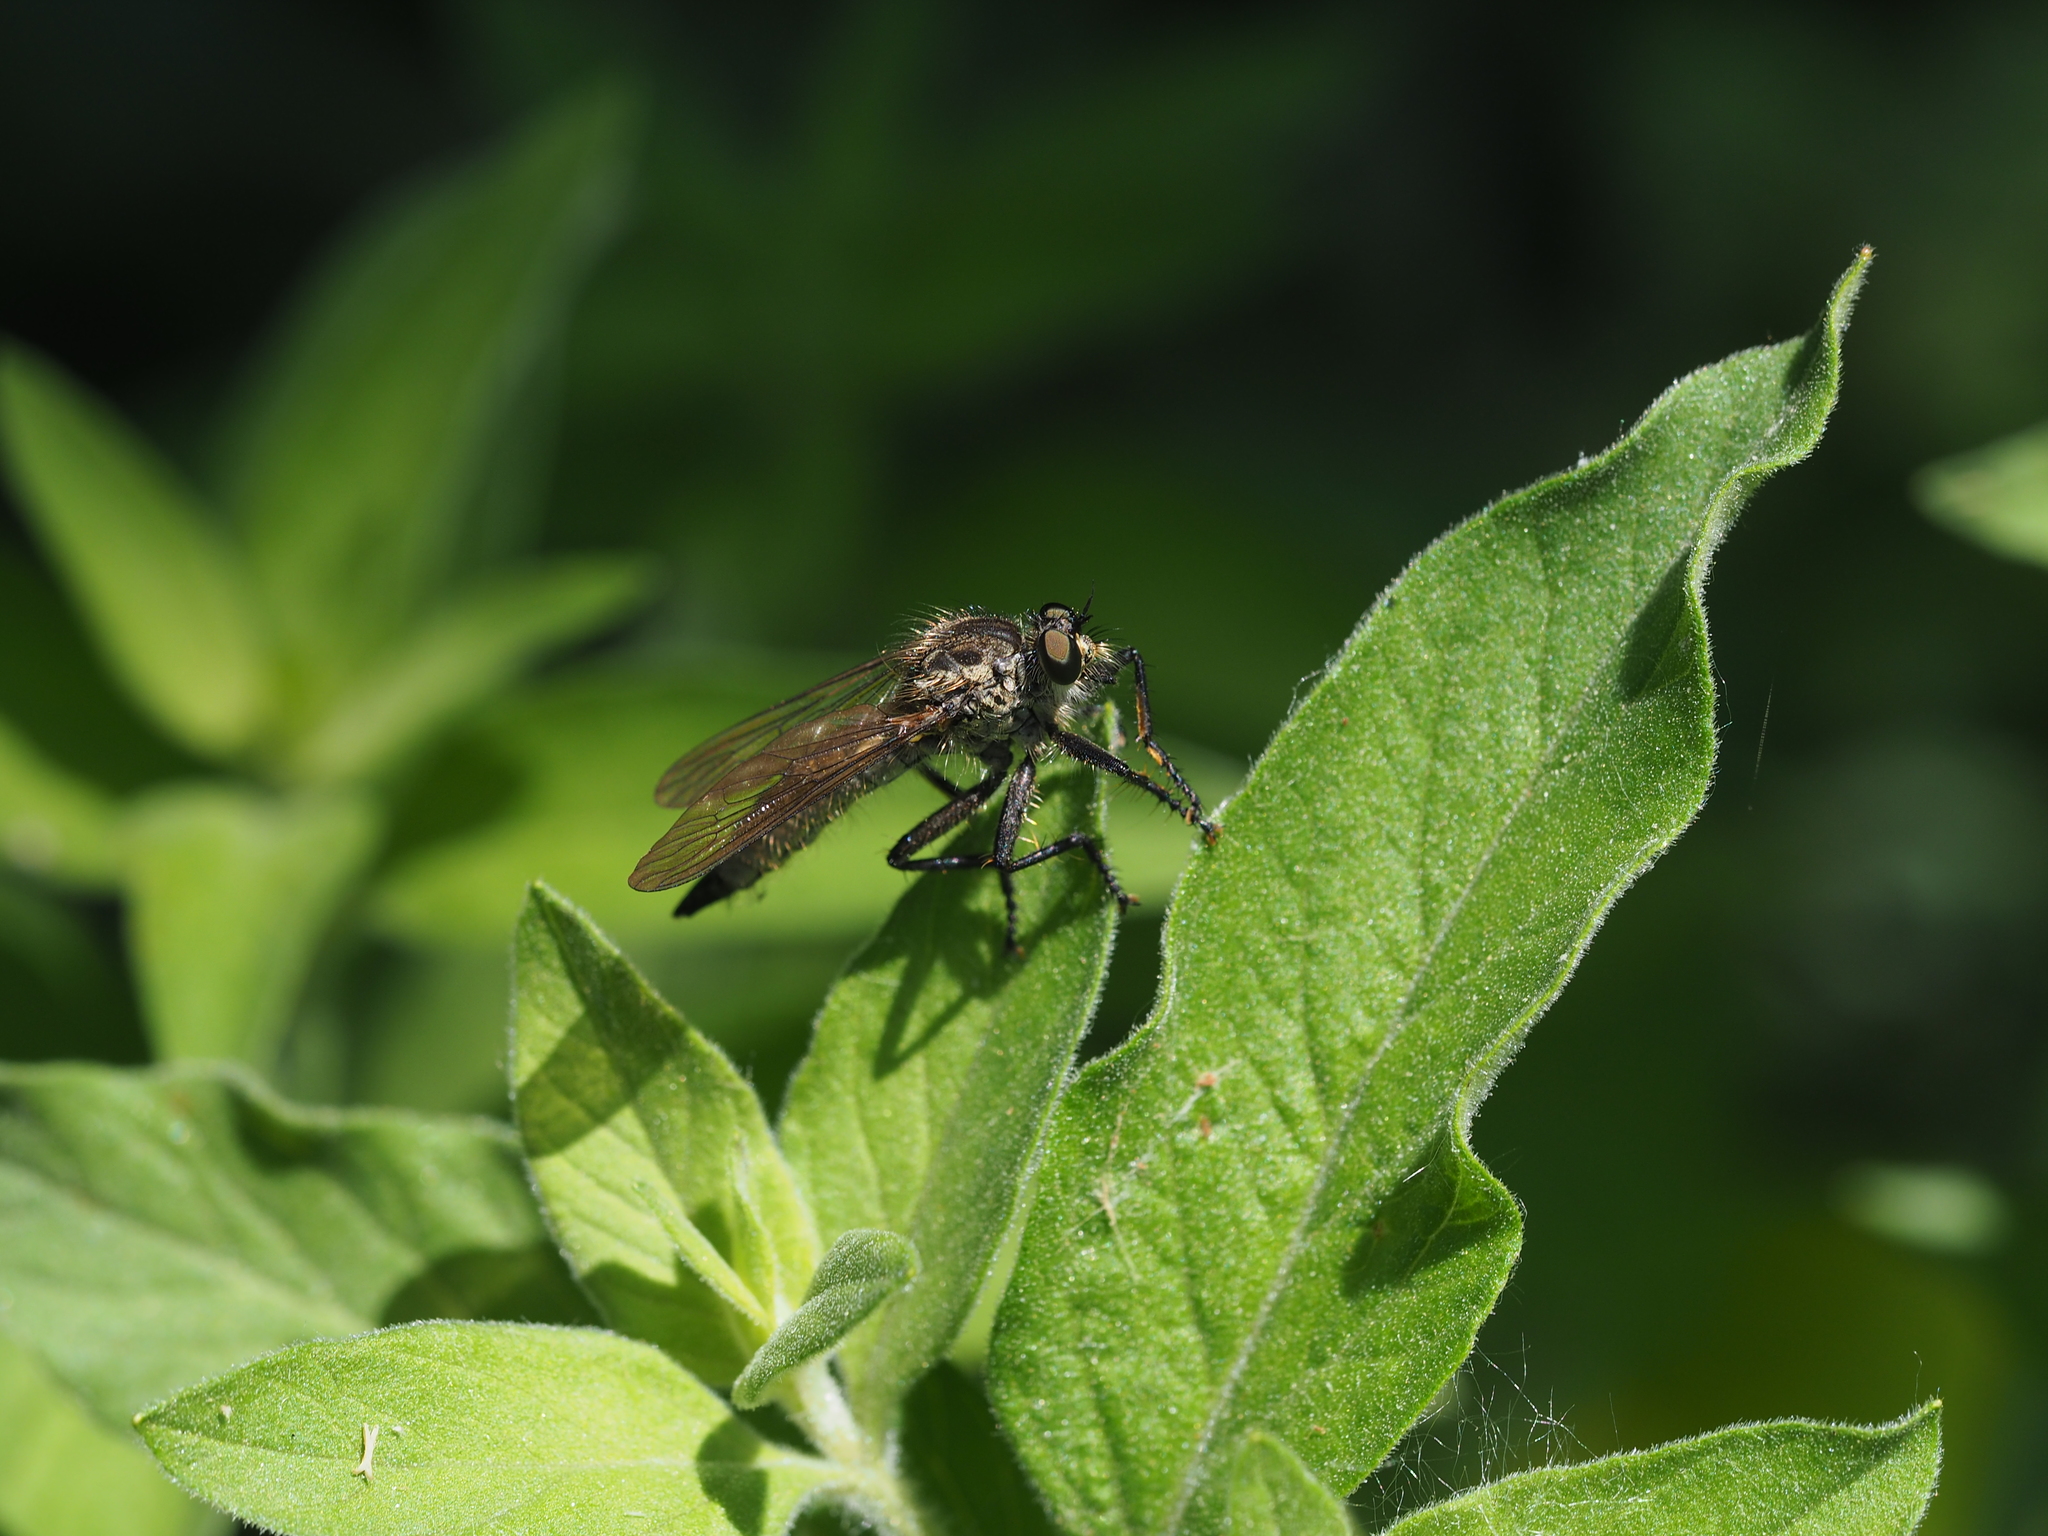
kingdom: Animalia
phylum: Arthropoda
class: Insecta
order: Diptera
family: Asilidae
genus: Didysmachus
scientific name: Didysmachus picipes
